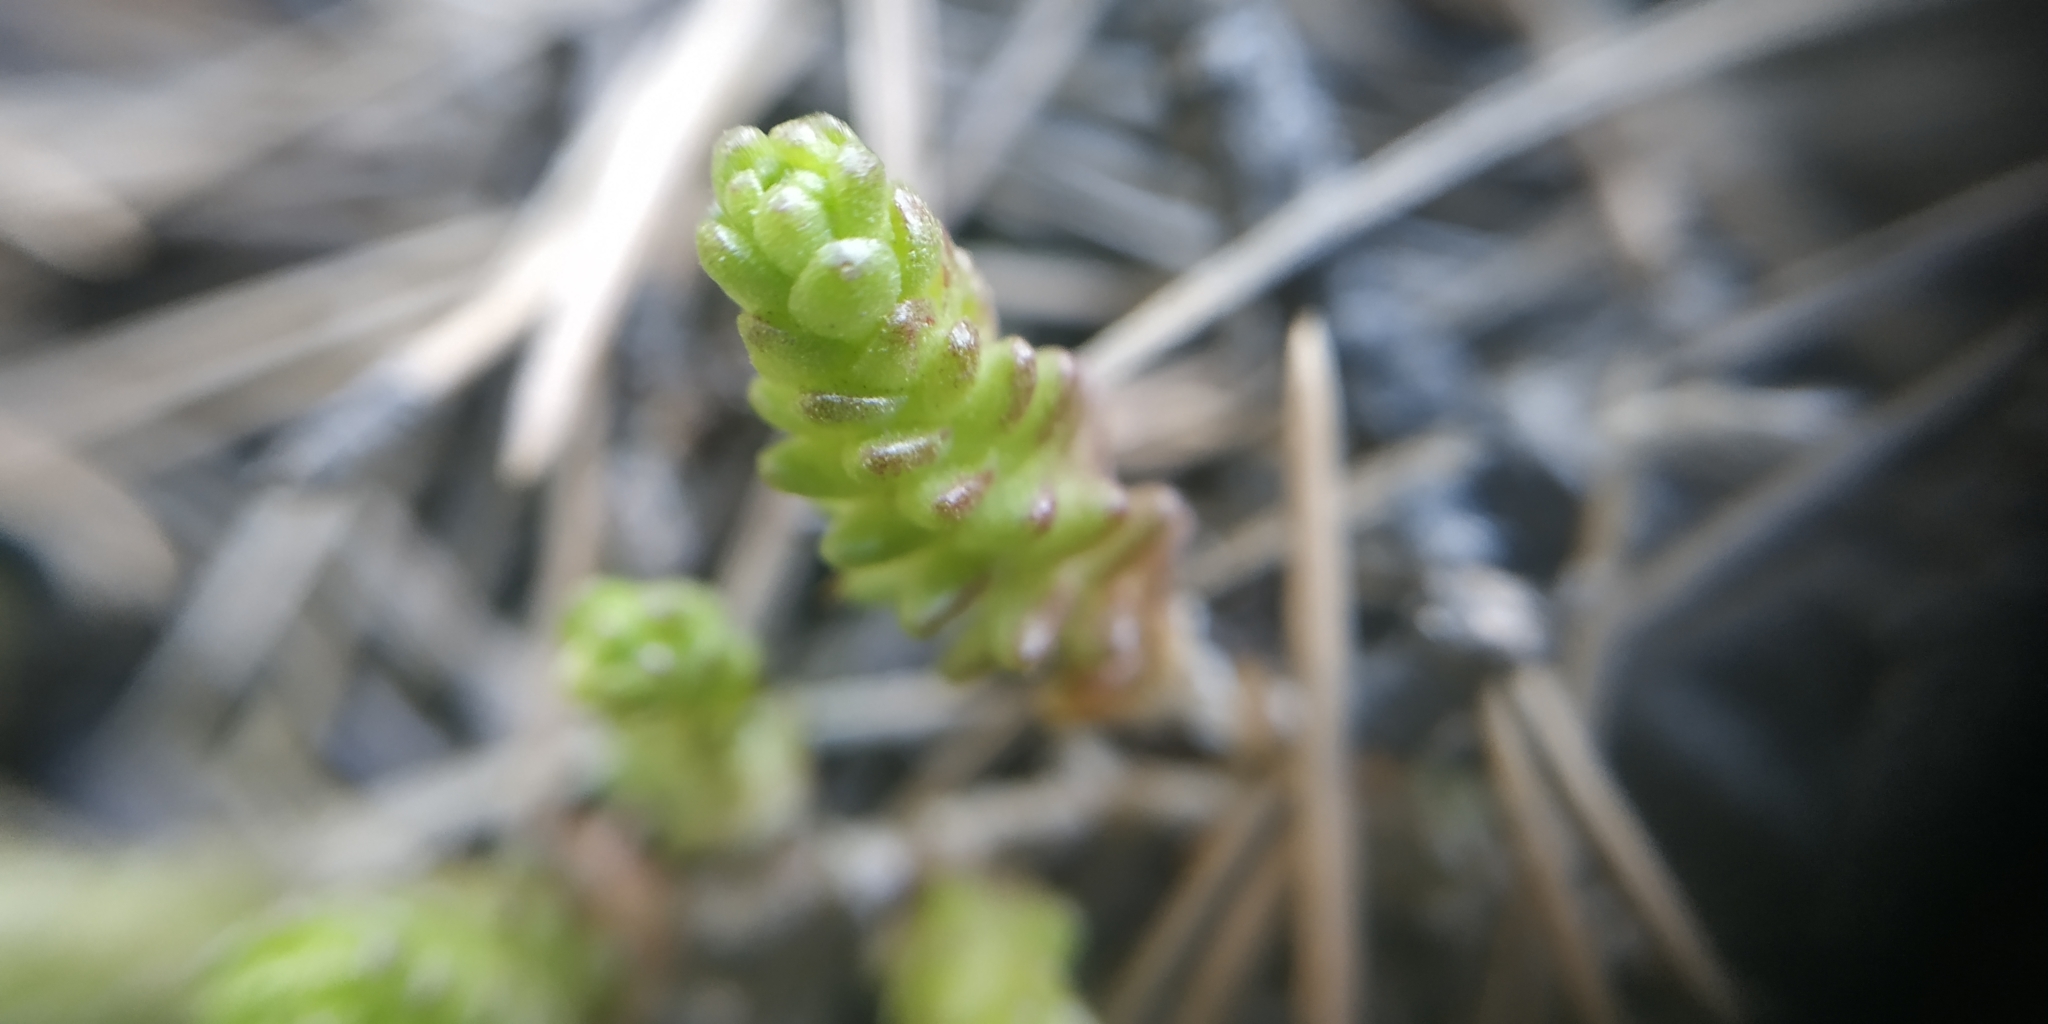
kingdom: Plantae
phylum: Tracheophyta
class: Magnoliopsida
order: Saxifragales
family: Crassulaceae
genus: Sedum
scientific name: Sedum acre
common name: Biting stonecrop
